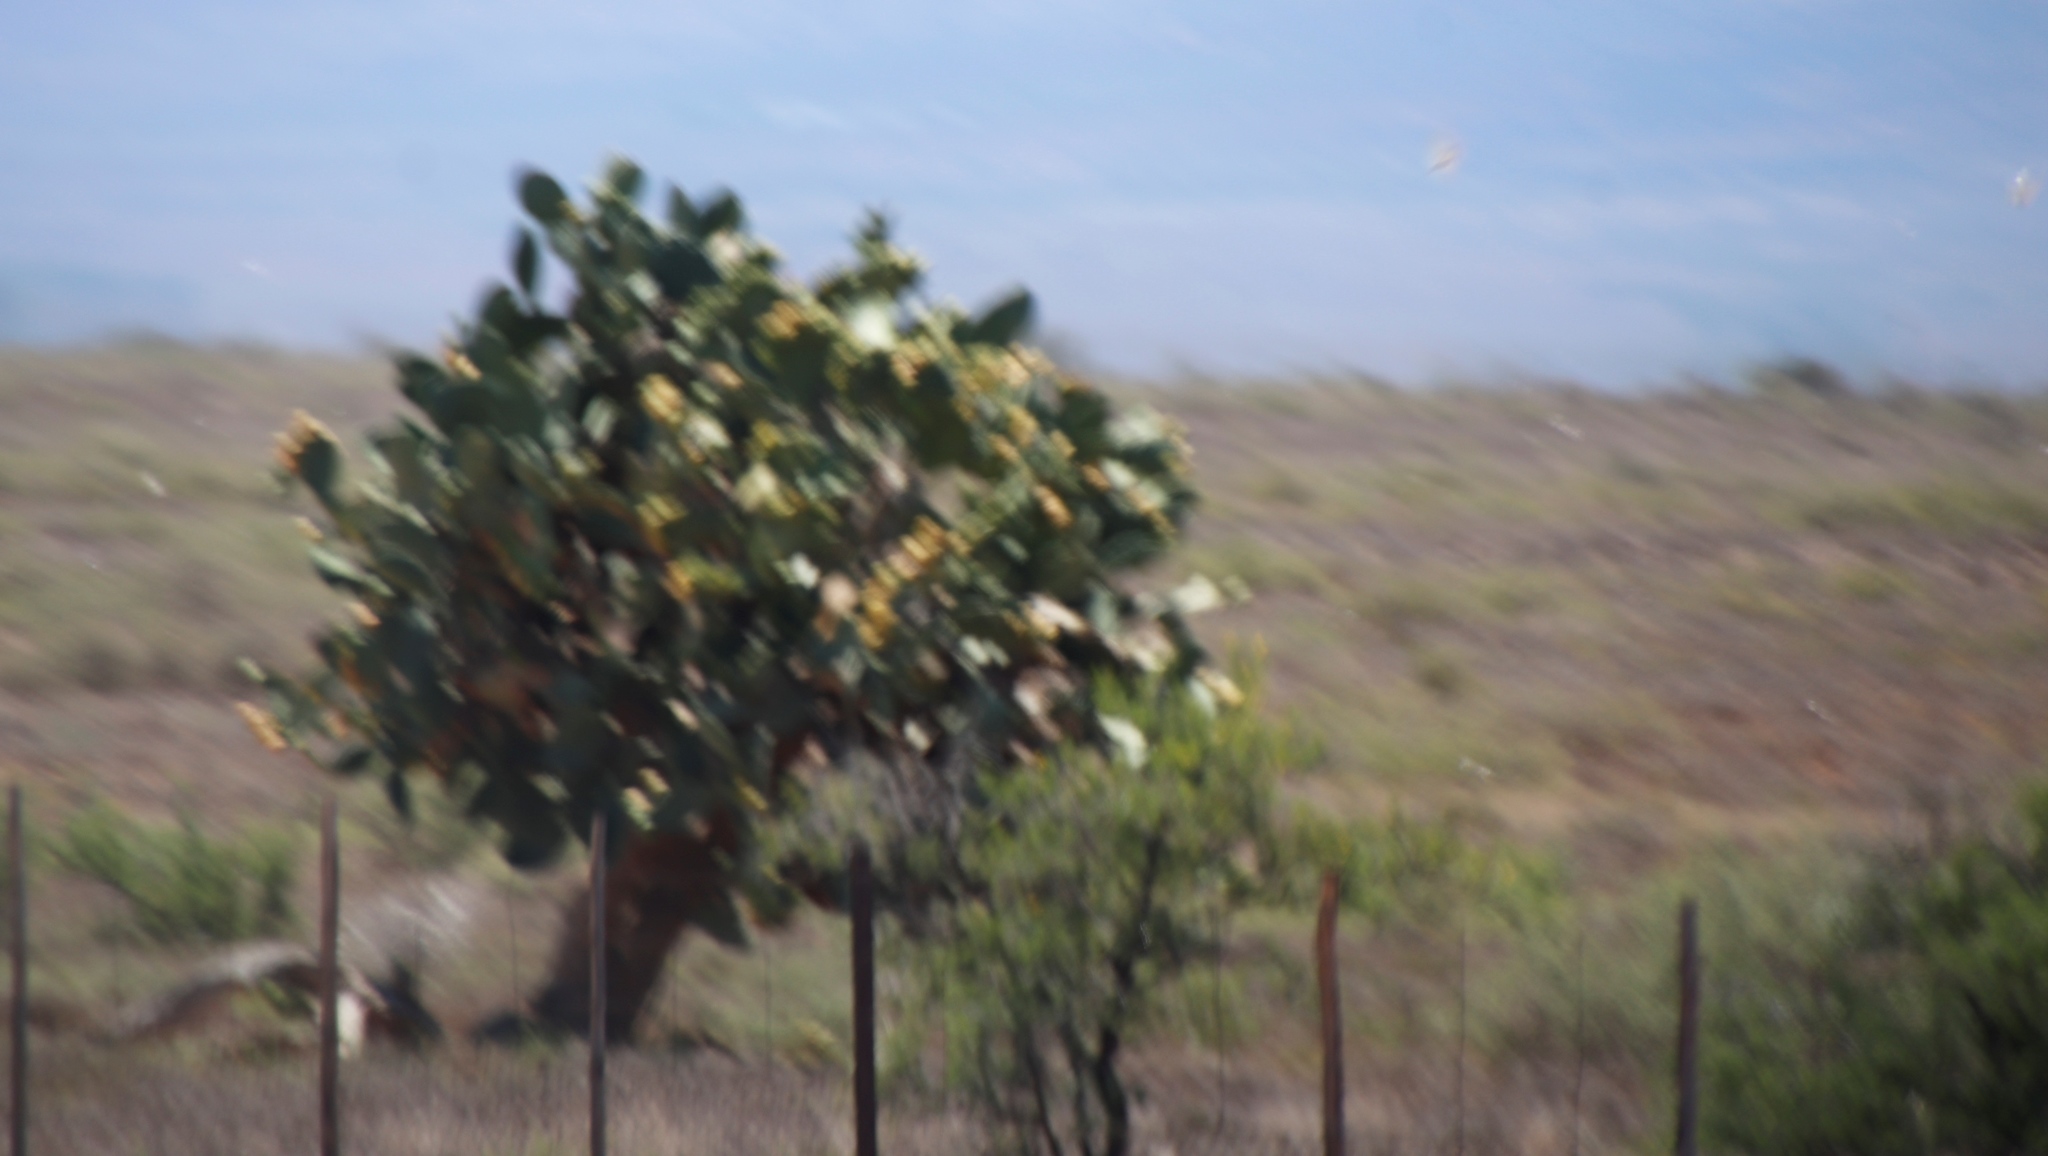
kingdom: Plantae
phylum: Tracheophyta
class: Magnoliopsida
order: Caryophyllales
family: Cactaceae
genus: Opuntia
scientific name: Opuntia ficus-indica
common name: Barbary fig
